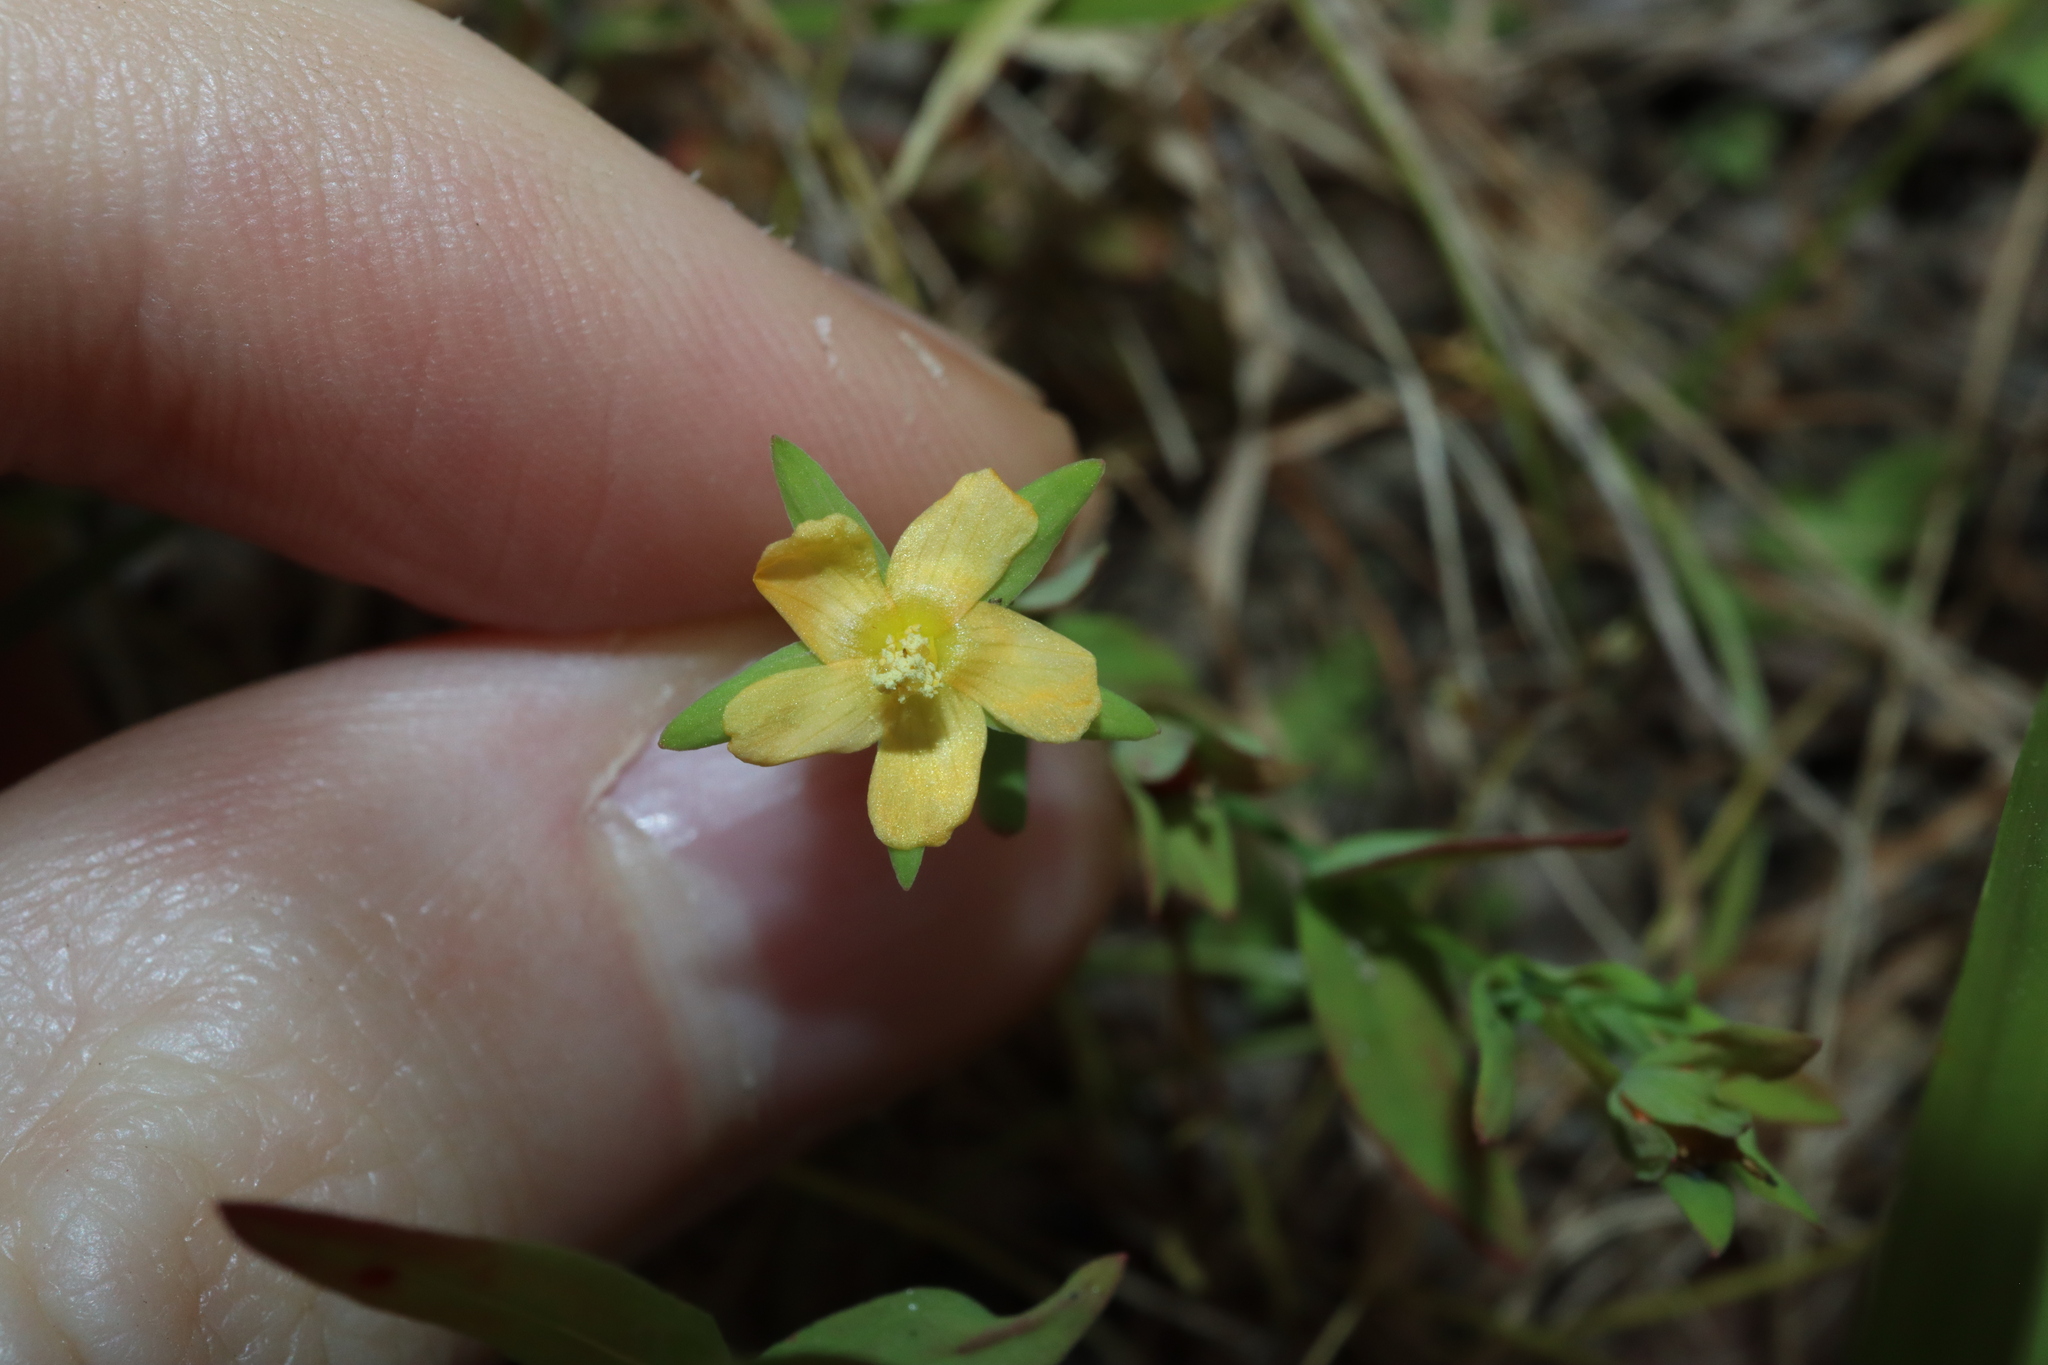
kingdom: Plantae
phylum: Tracheophyta
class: Magnoliopsida
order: Malpighiales
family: Hypericaceae
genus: Hypericum
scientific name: Hypericum gramineum
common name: Grassy st. johnswort
